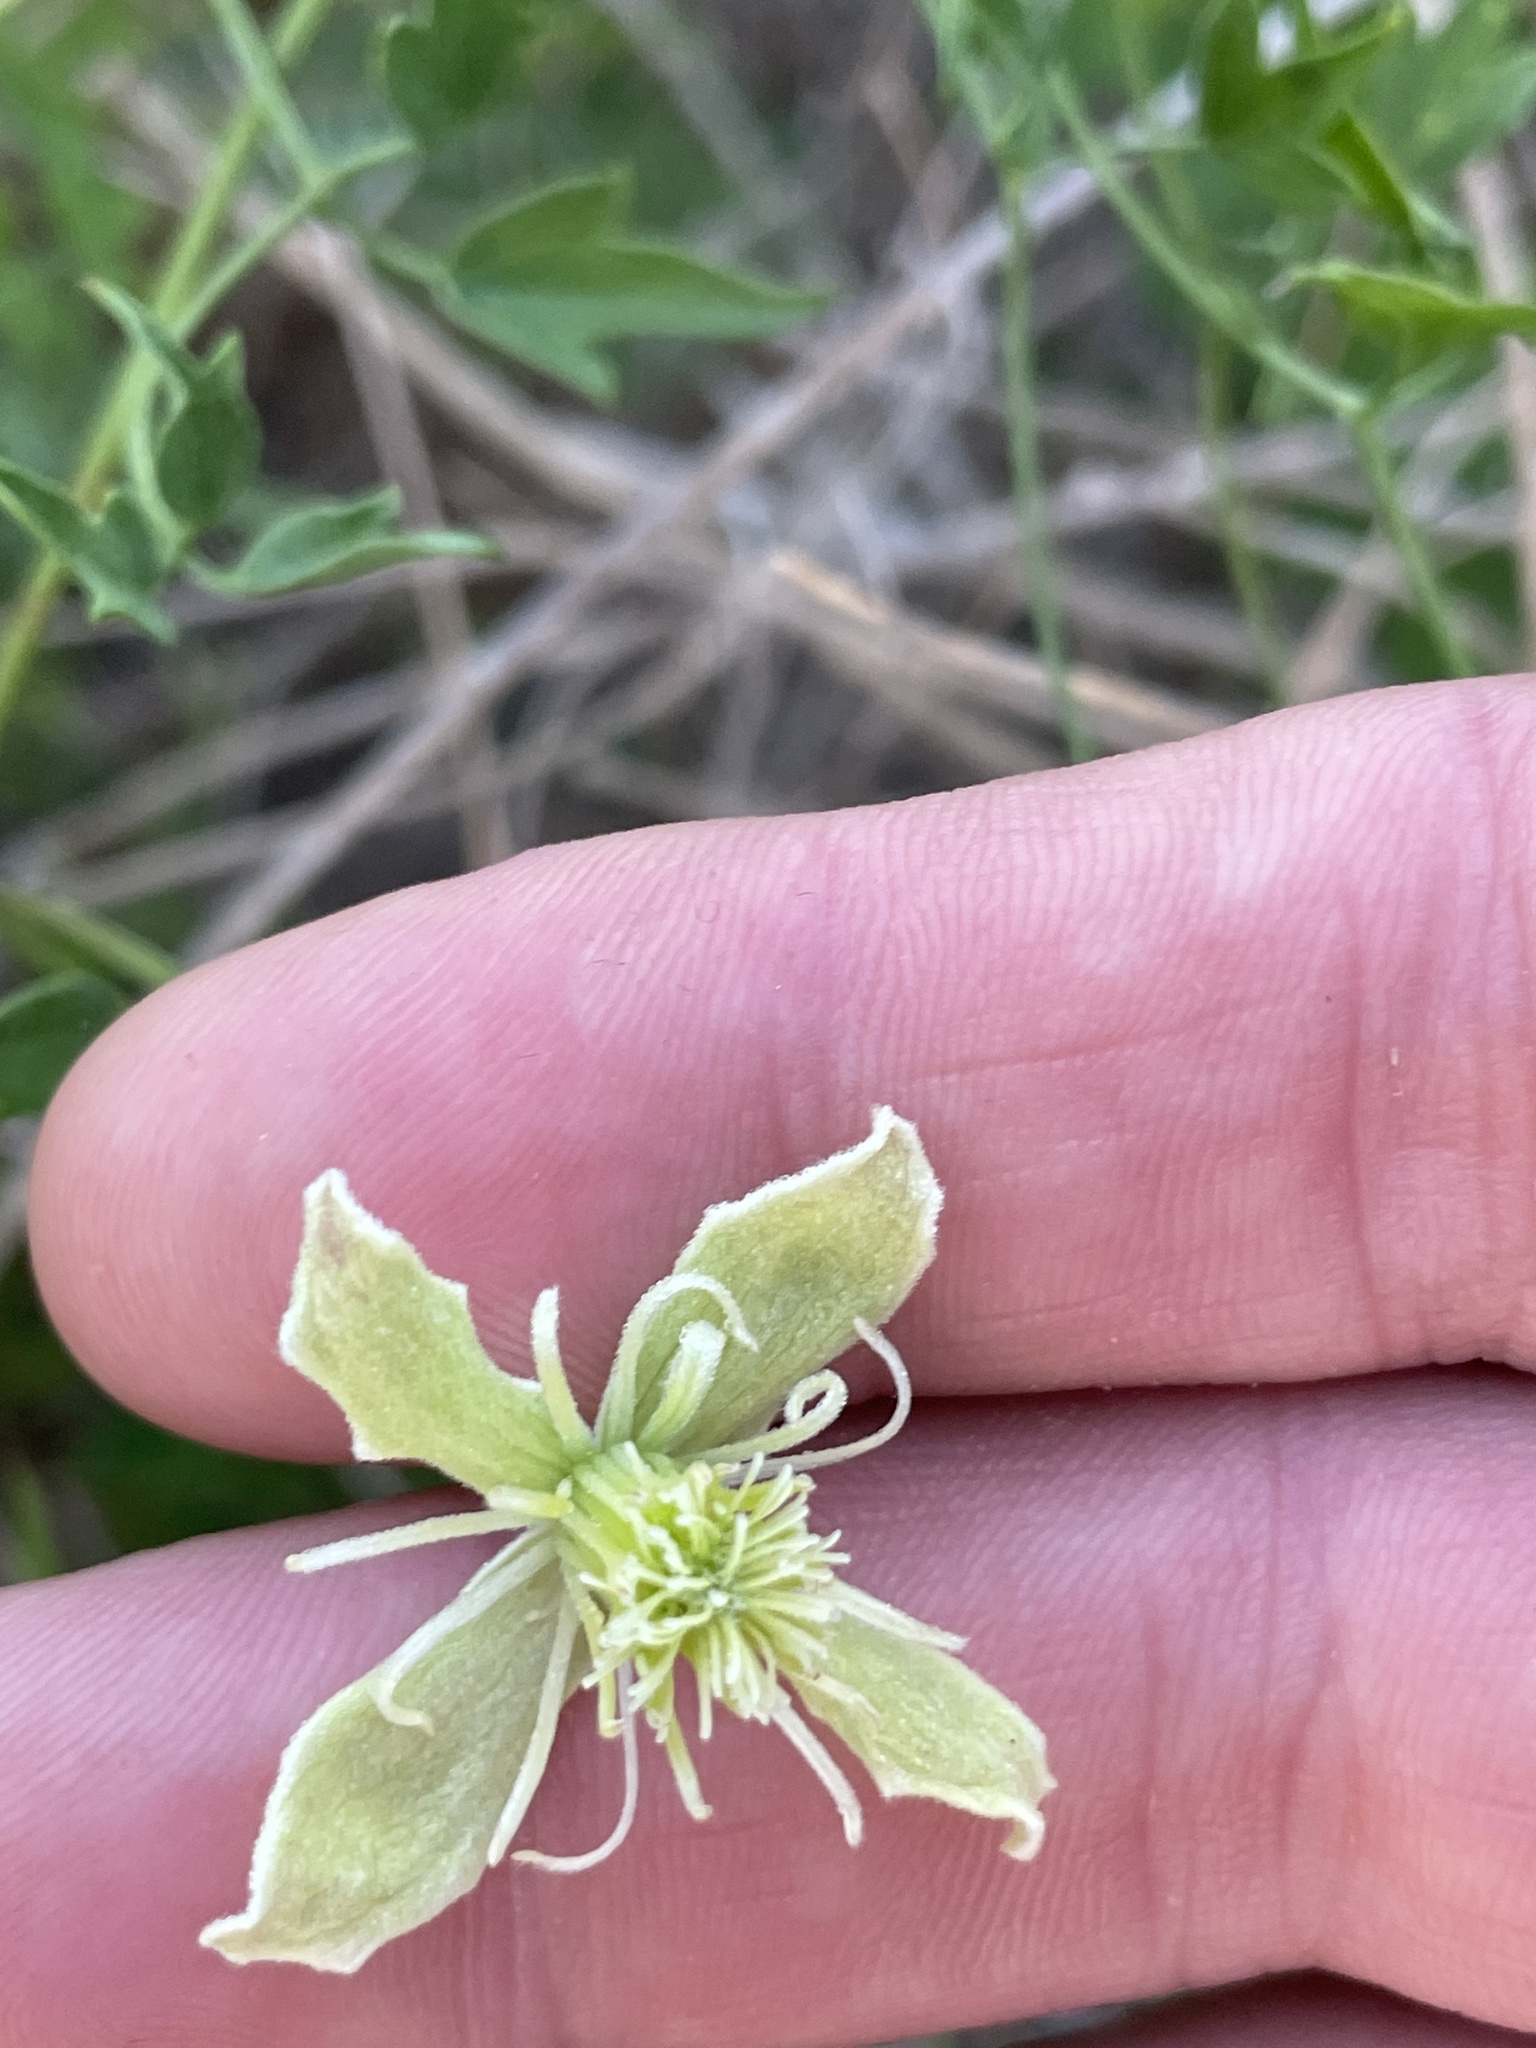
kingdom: Plantae
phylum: Tracheophyta
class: Magnoliopsida
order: Ranunculales
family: Ranunculaceae
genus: Clematis
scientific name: Clematis drummondii
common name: Texas virgin's bower
